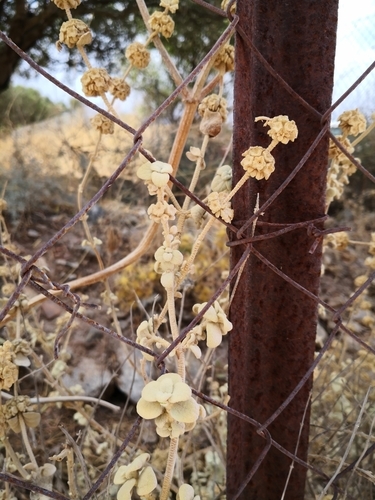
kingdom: Plantae
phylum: Tracheophyta
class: Magnoliopsida
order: Lamiales
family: Lamiaceae
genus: Pseudodictamnus
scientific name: Pseudodictamnus mediterraneus
